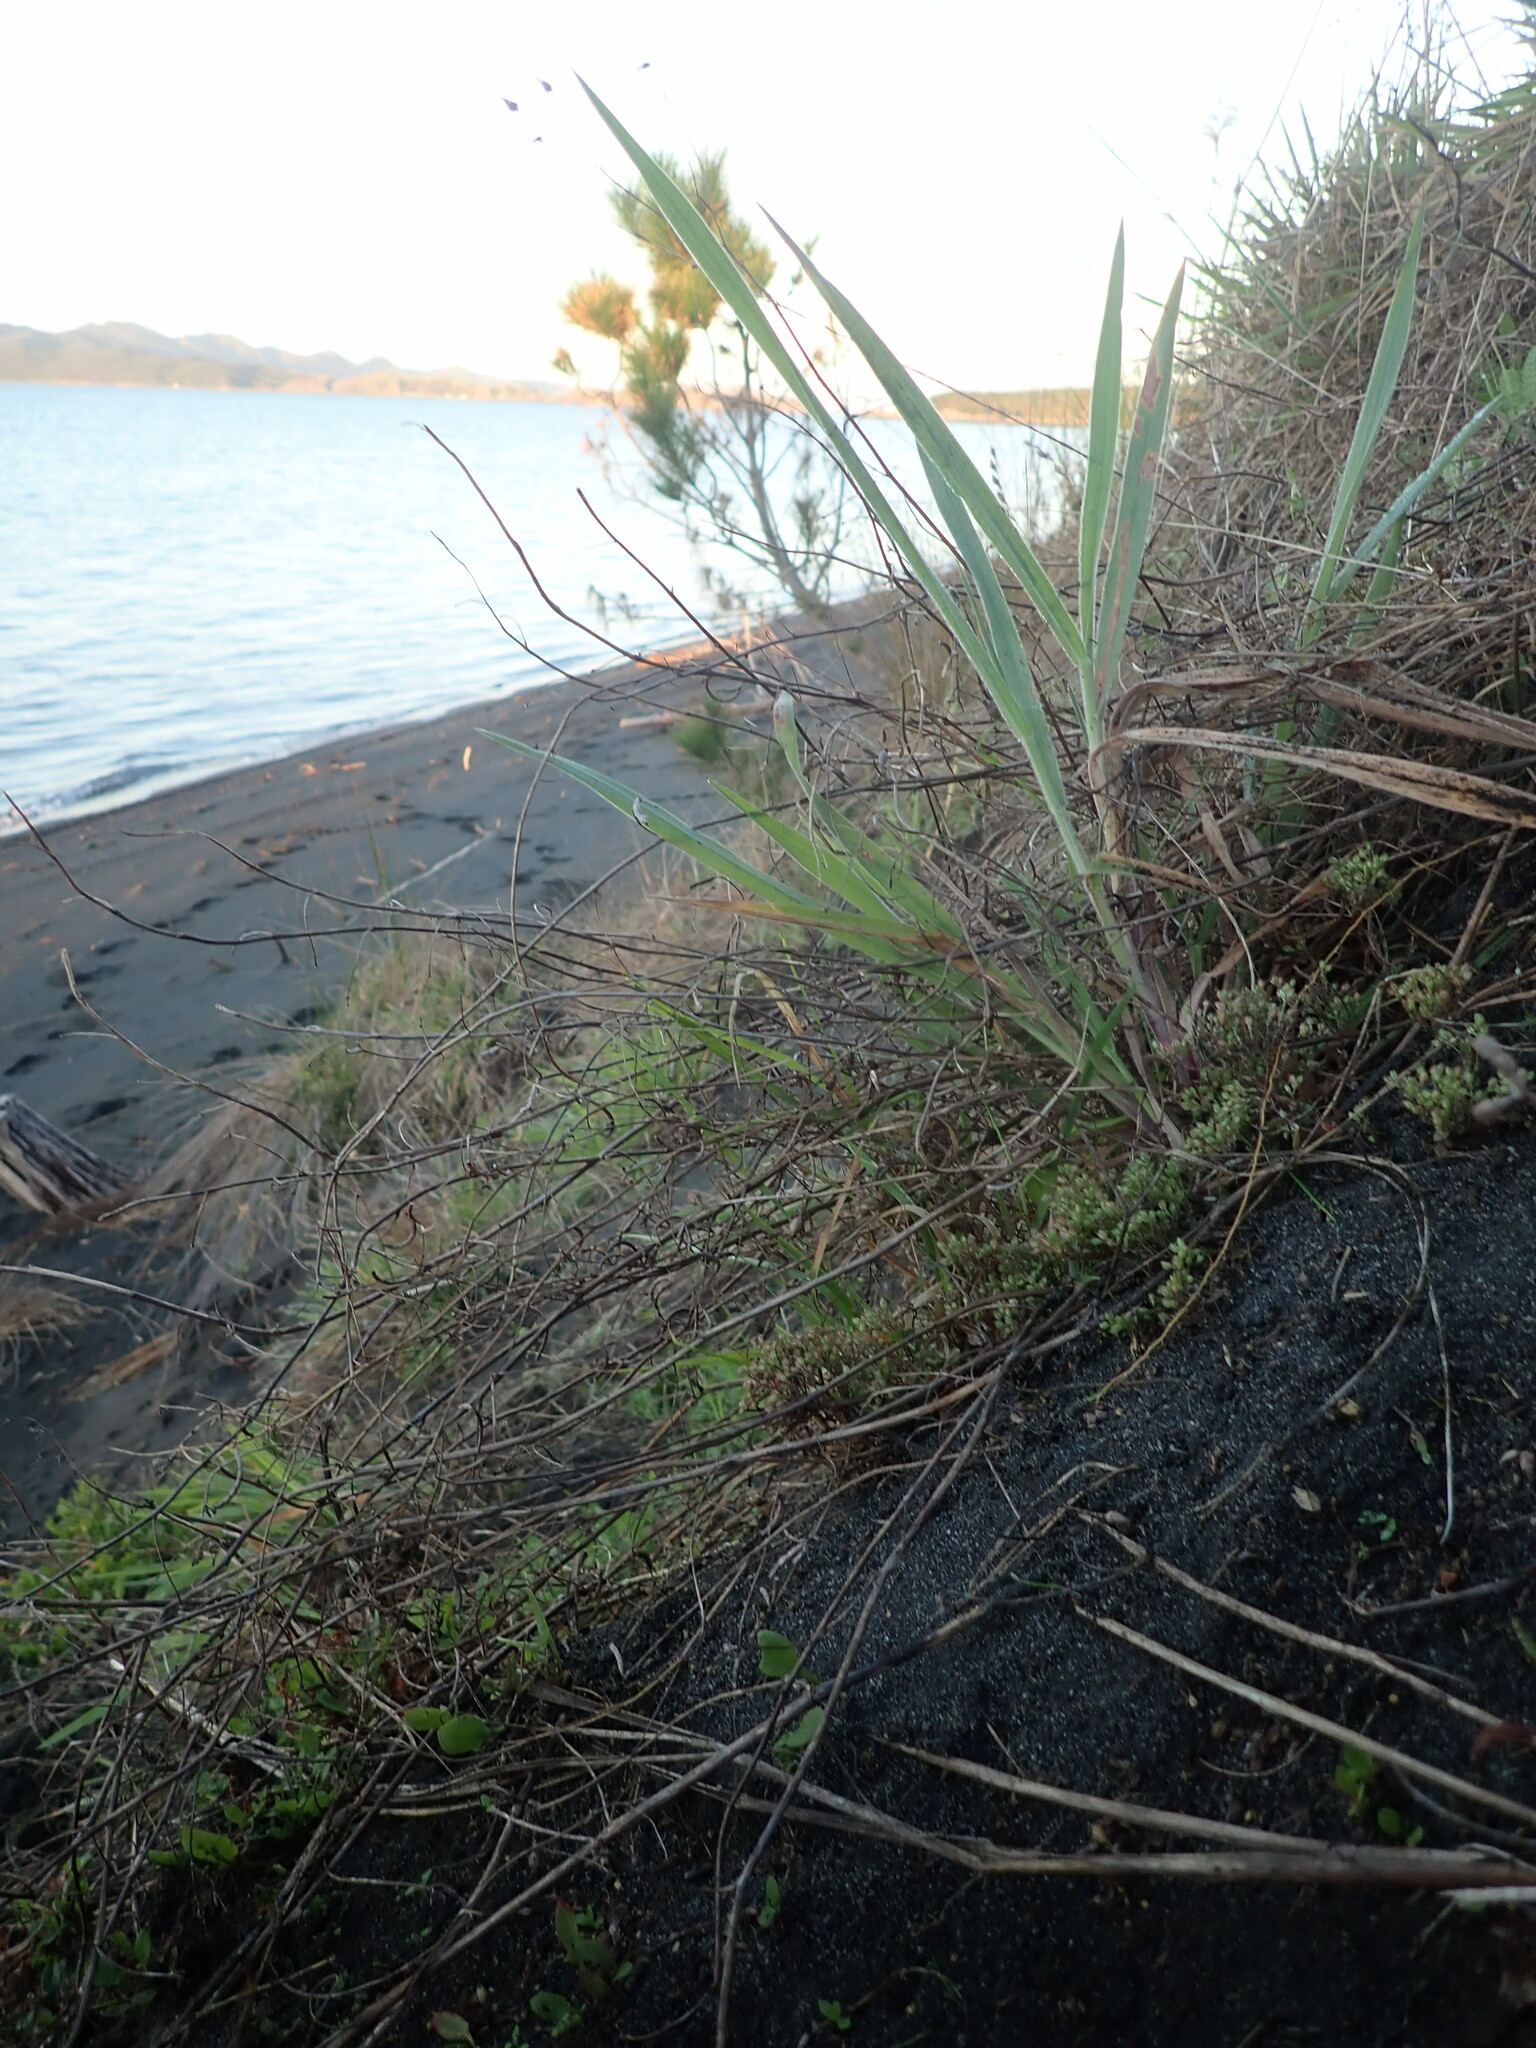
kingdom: Plantae
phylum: Tracheophyta
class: Magnoliopsida
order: Caryophyllales
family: Caryophyllaceae
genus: Polycarpon
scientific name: Polycarpon tetraphyllum
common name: Four-leaved all-seed
